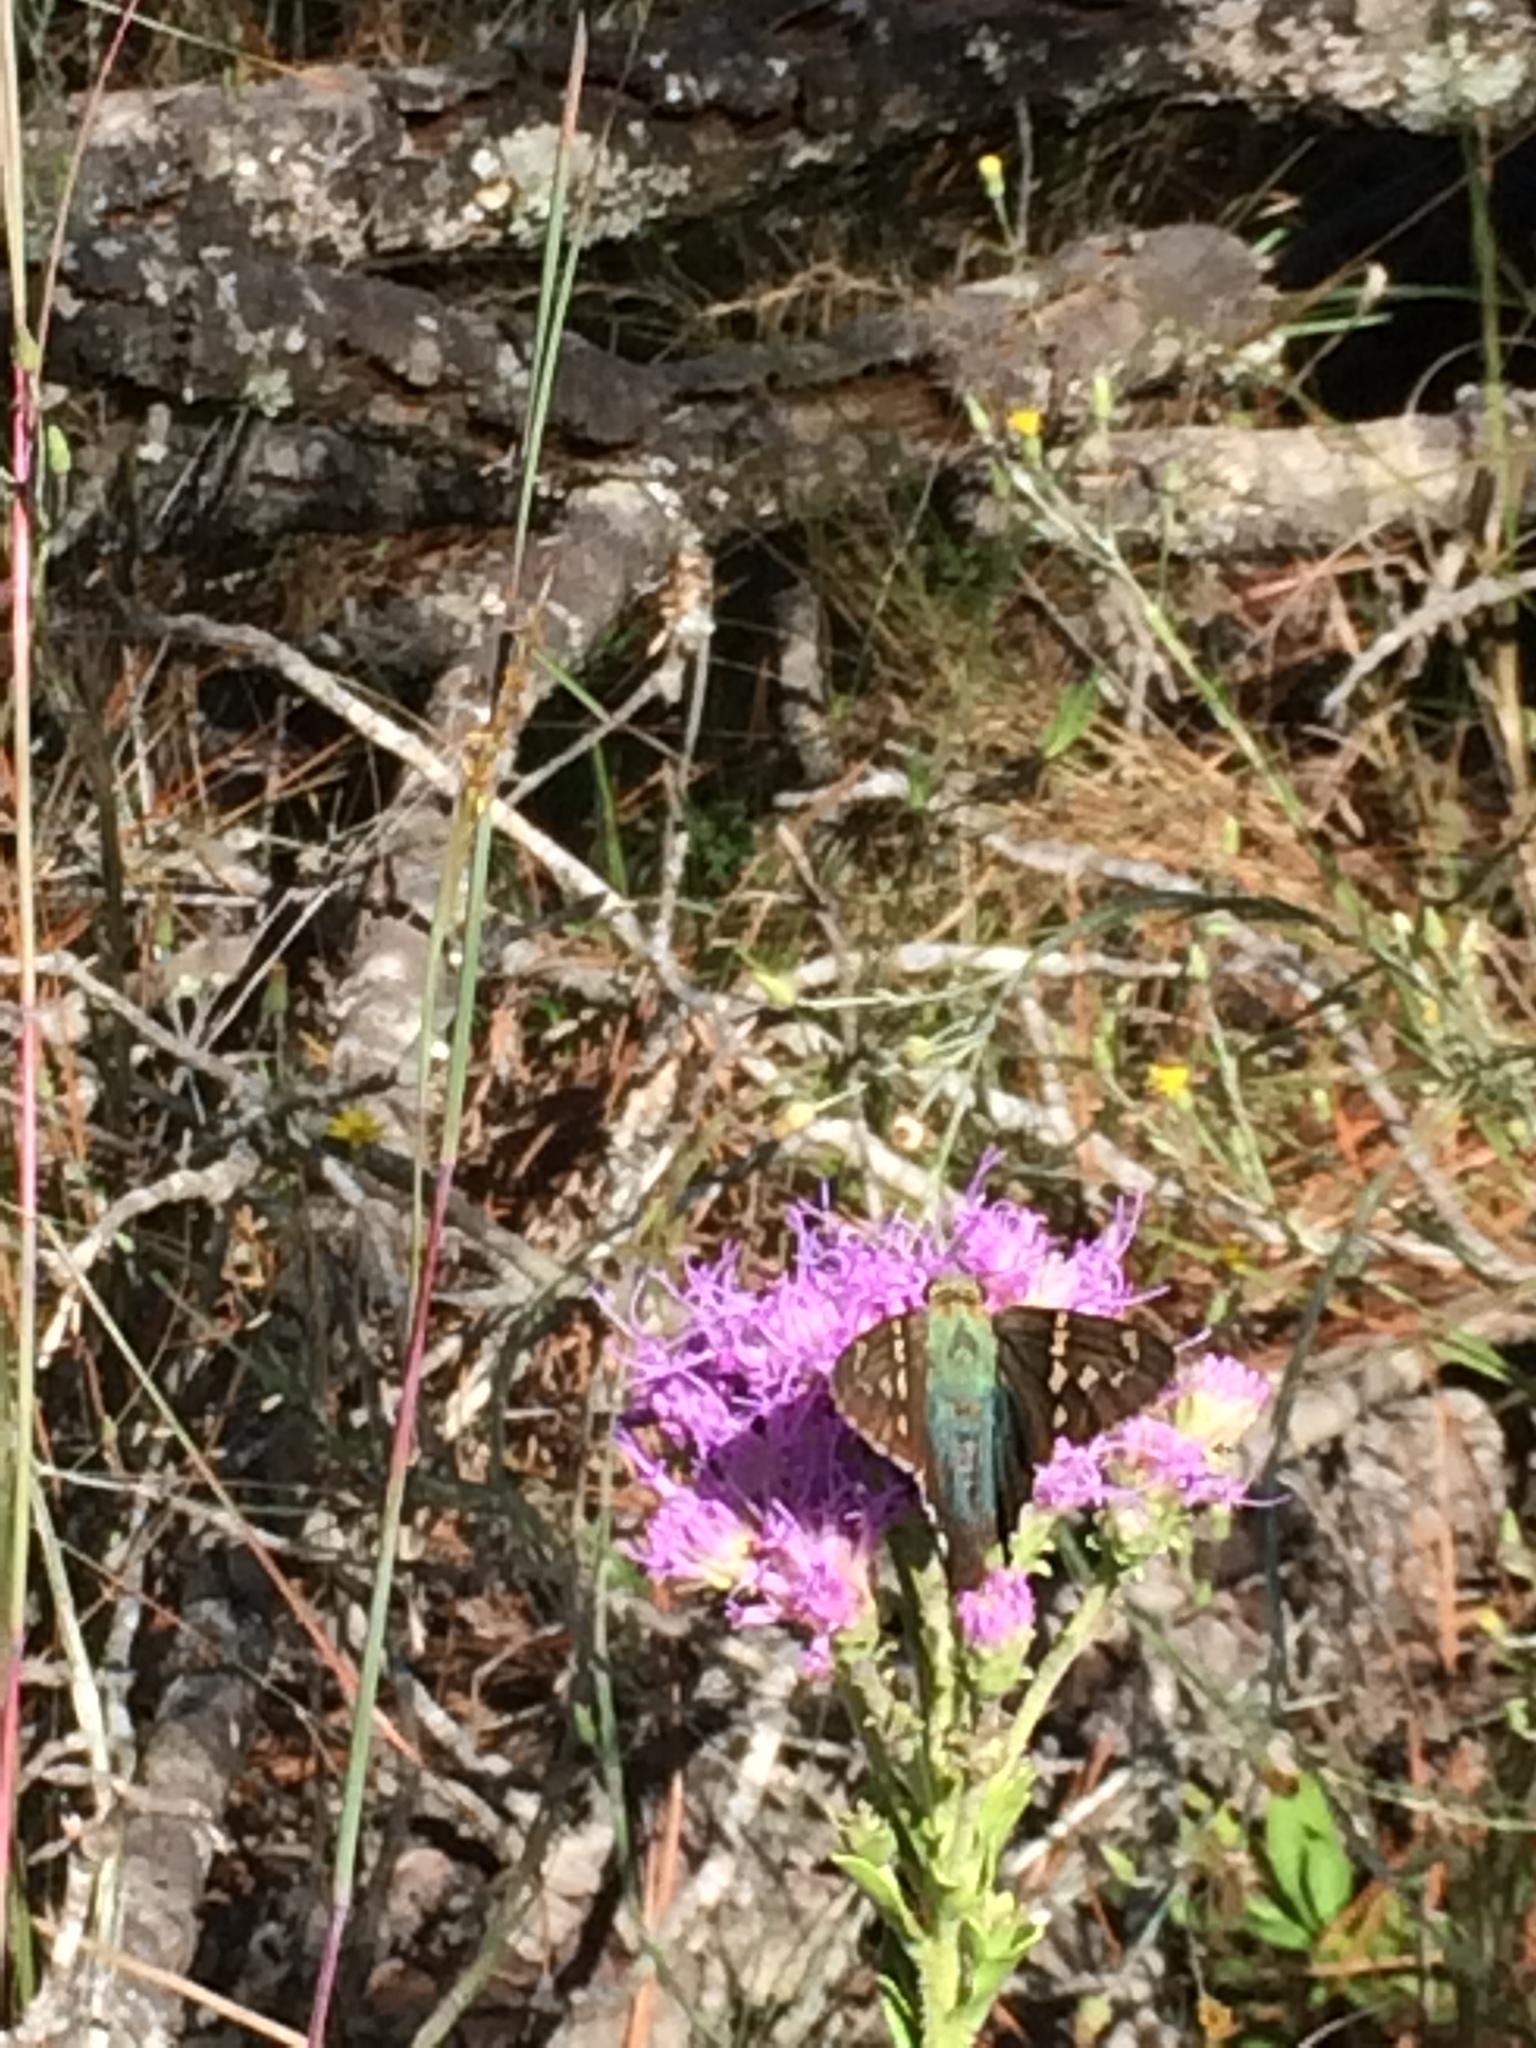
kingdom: Animalia
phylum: Arthropoda
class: Insecta
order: Lepidoptera
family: Hesperiidae
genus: Urbanus
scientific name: Urbanus proteus
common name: Long-tailed skipper
